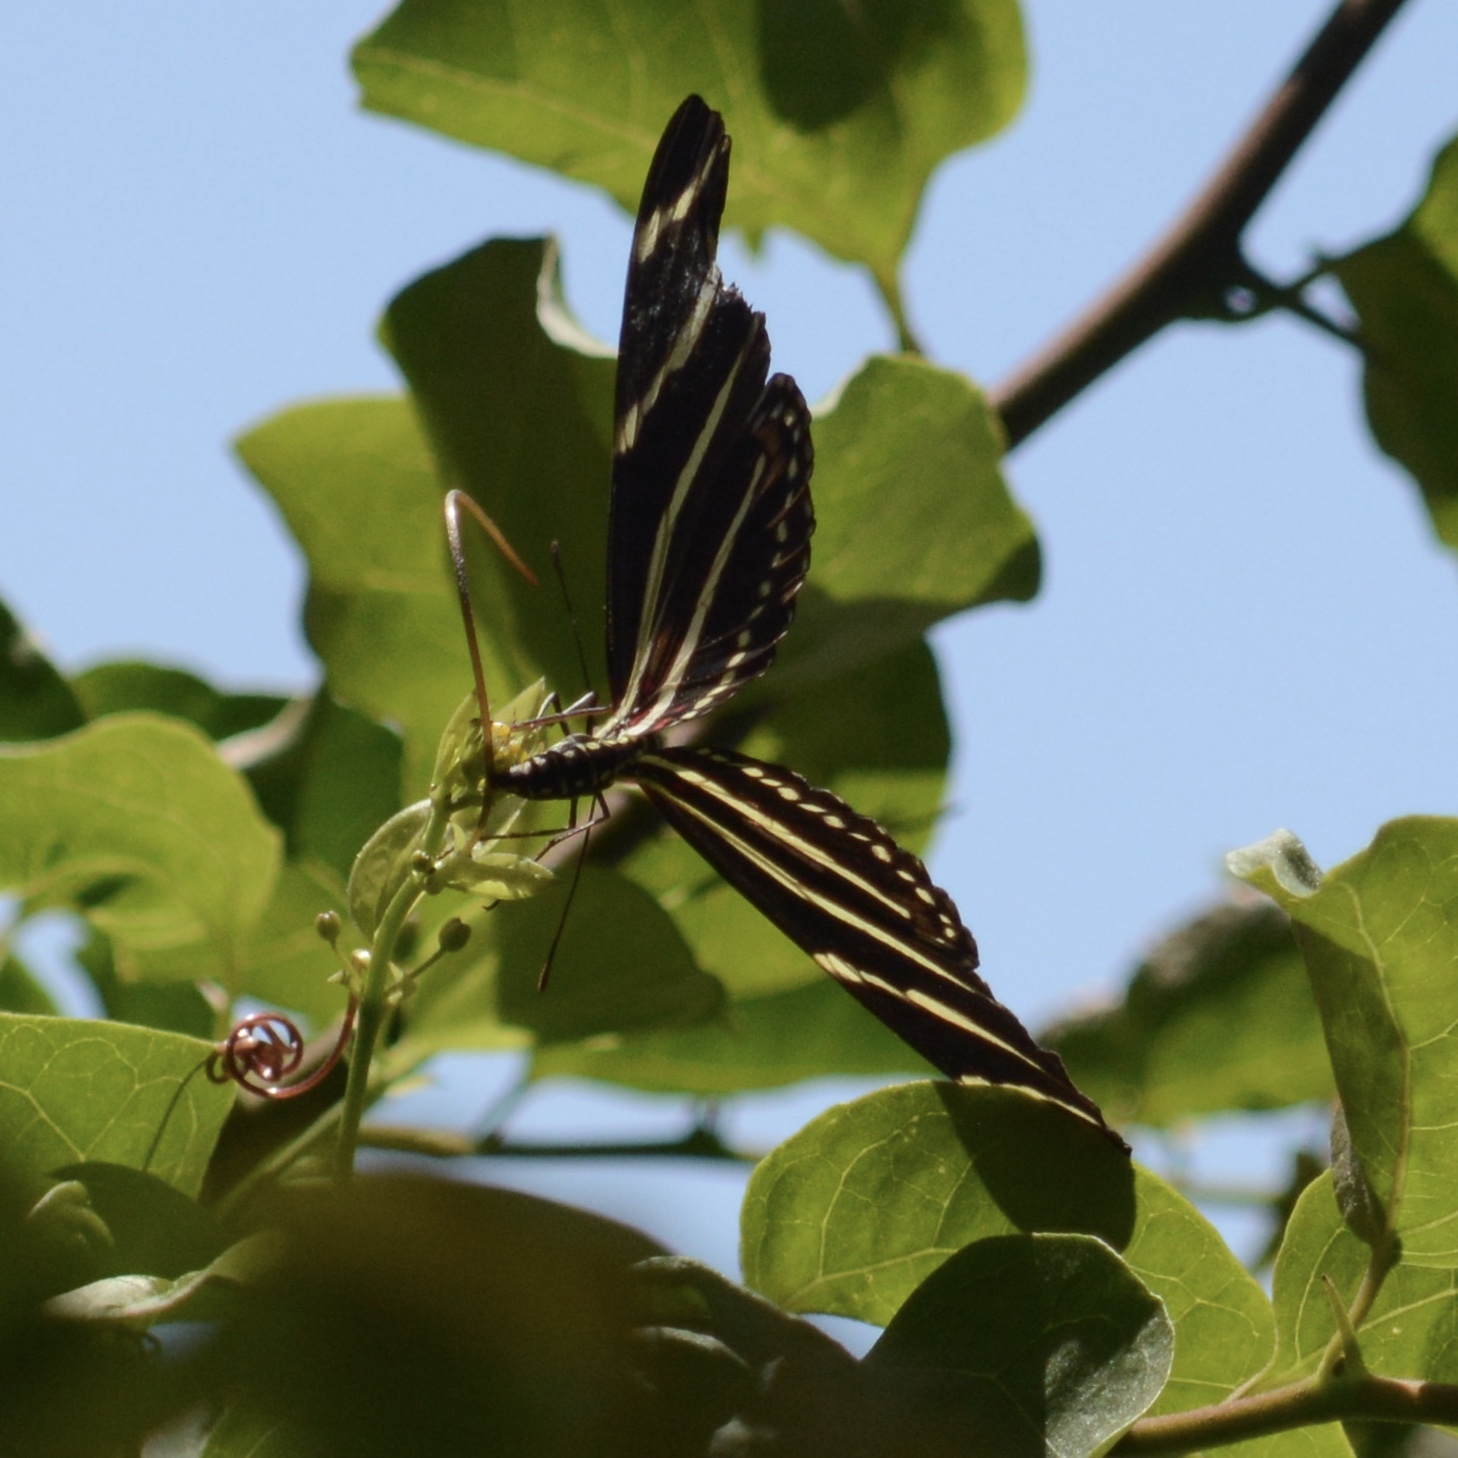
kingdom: Animalia
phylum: Arthropoda
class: Insecta
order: Lepidoptera
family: Nymphalidae
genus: Heliconius
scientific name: Heliconius charithonia
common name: Zebra long wing
